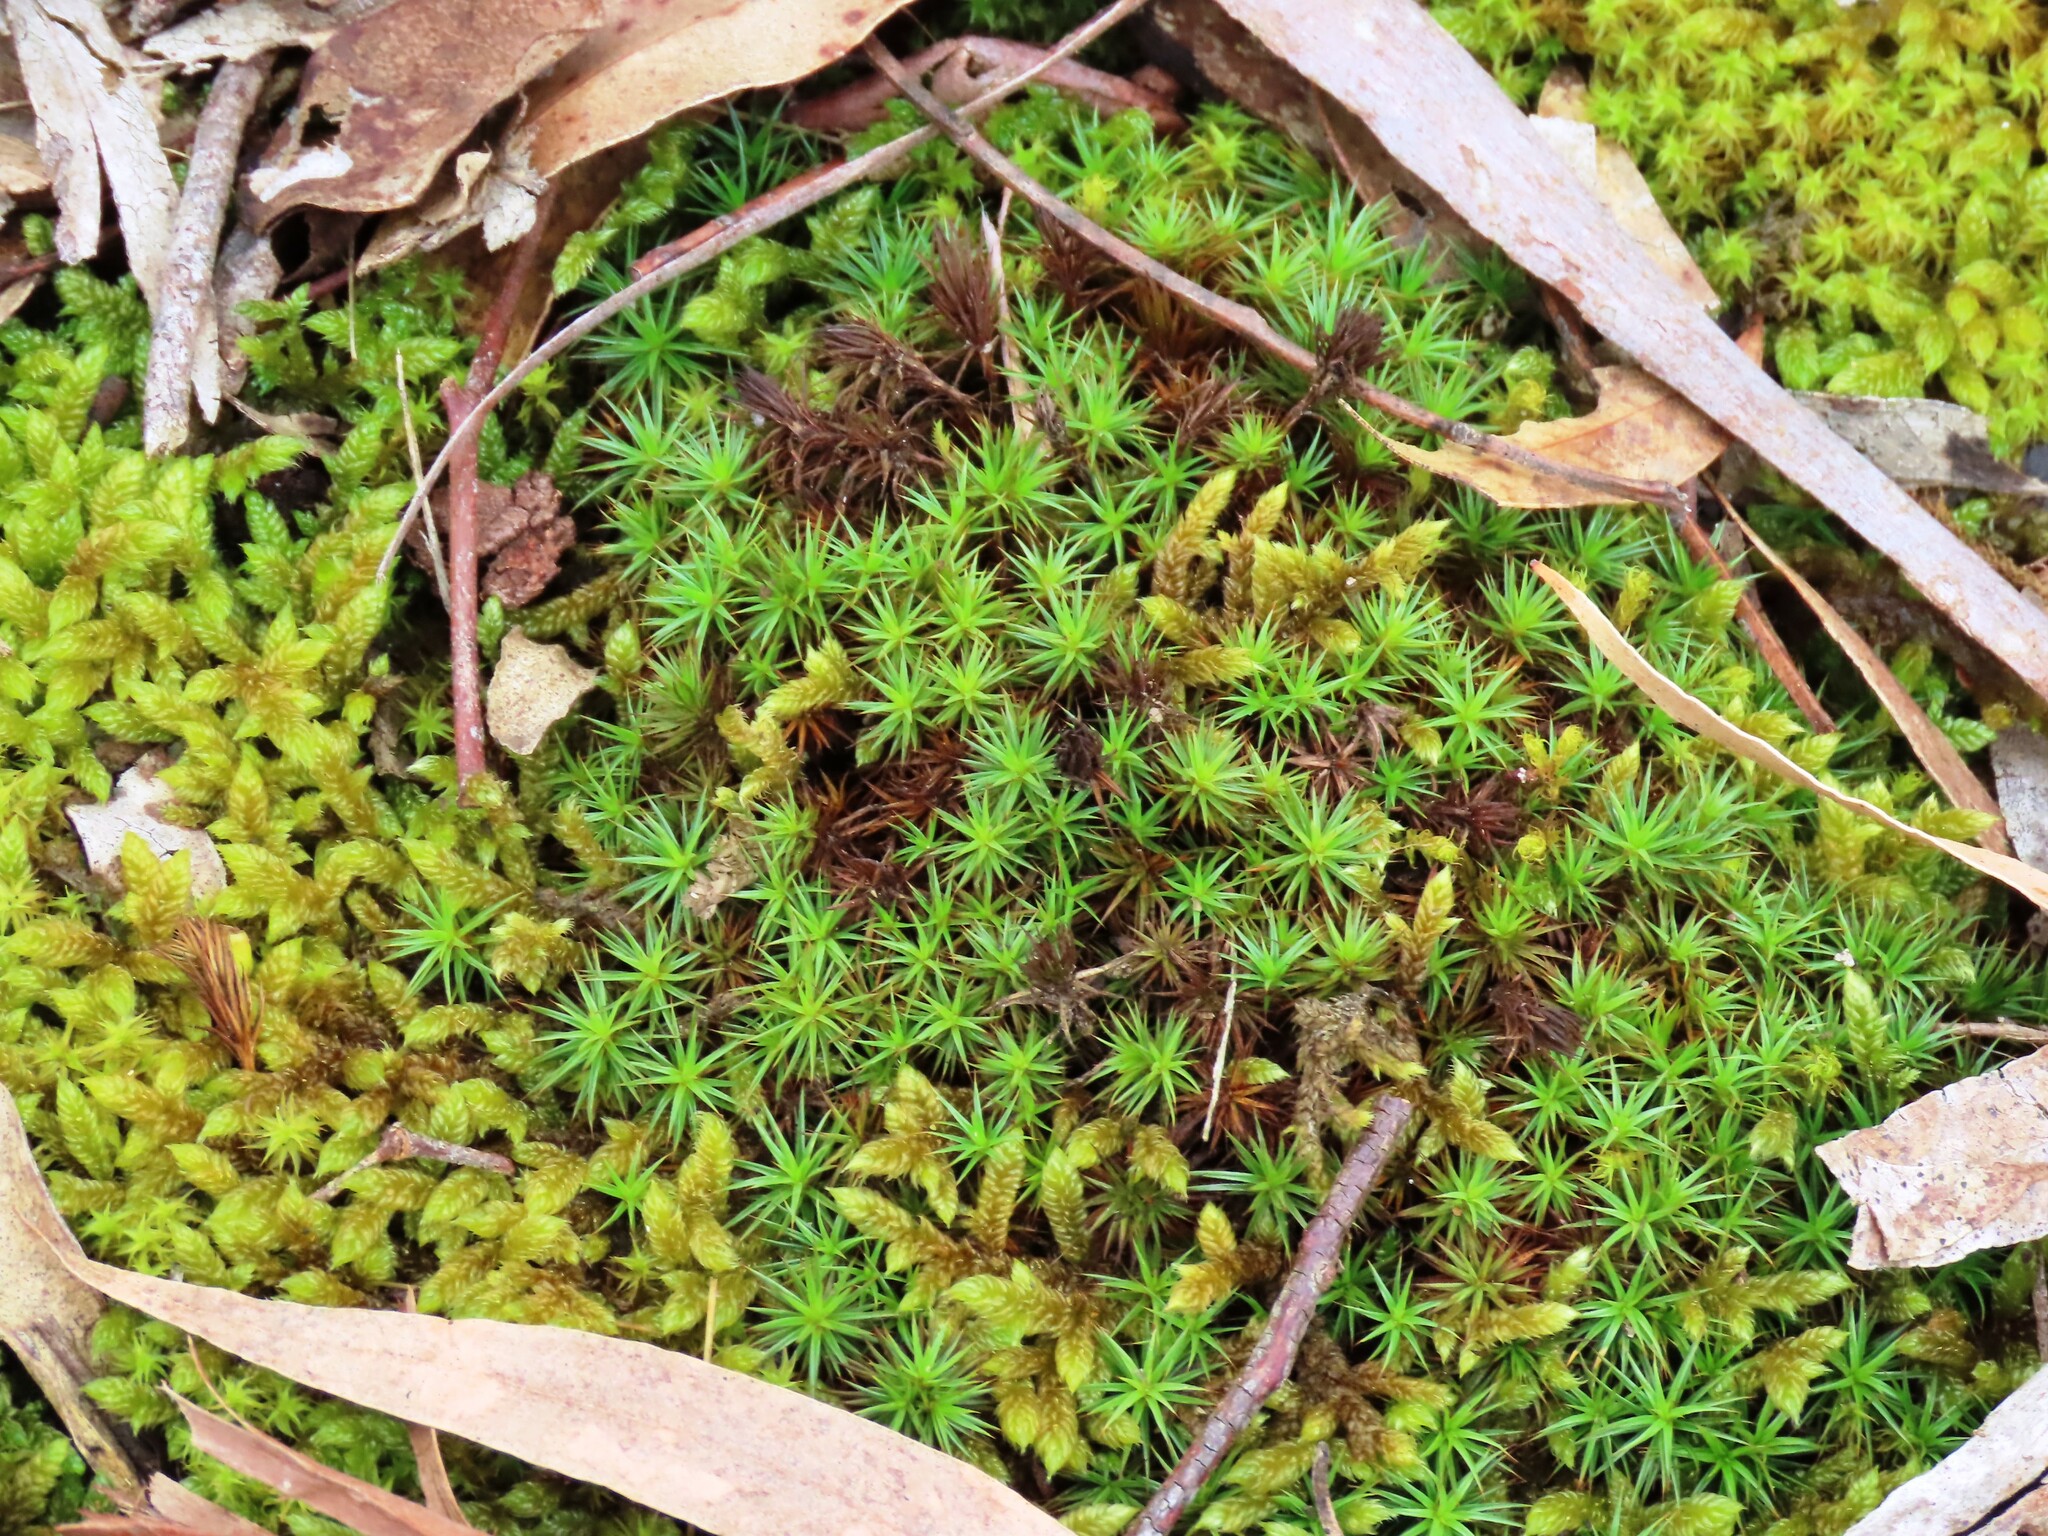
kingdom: Plantae
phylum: Bryophyta
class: Polytrichopsida
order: Polytrichales
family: Polytrichaceae
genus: Polytrichum
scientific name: Polytrichum juniperinum
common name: Juniper haircap moss
